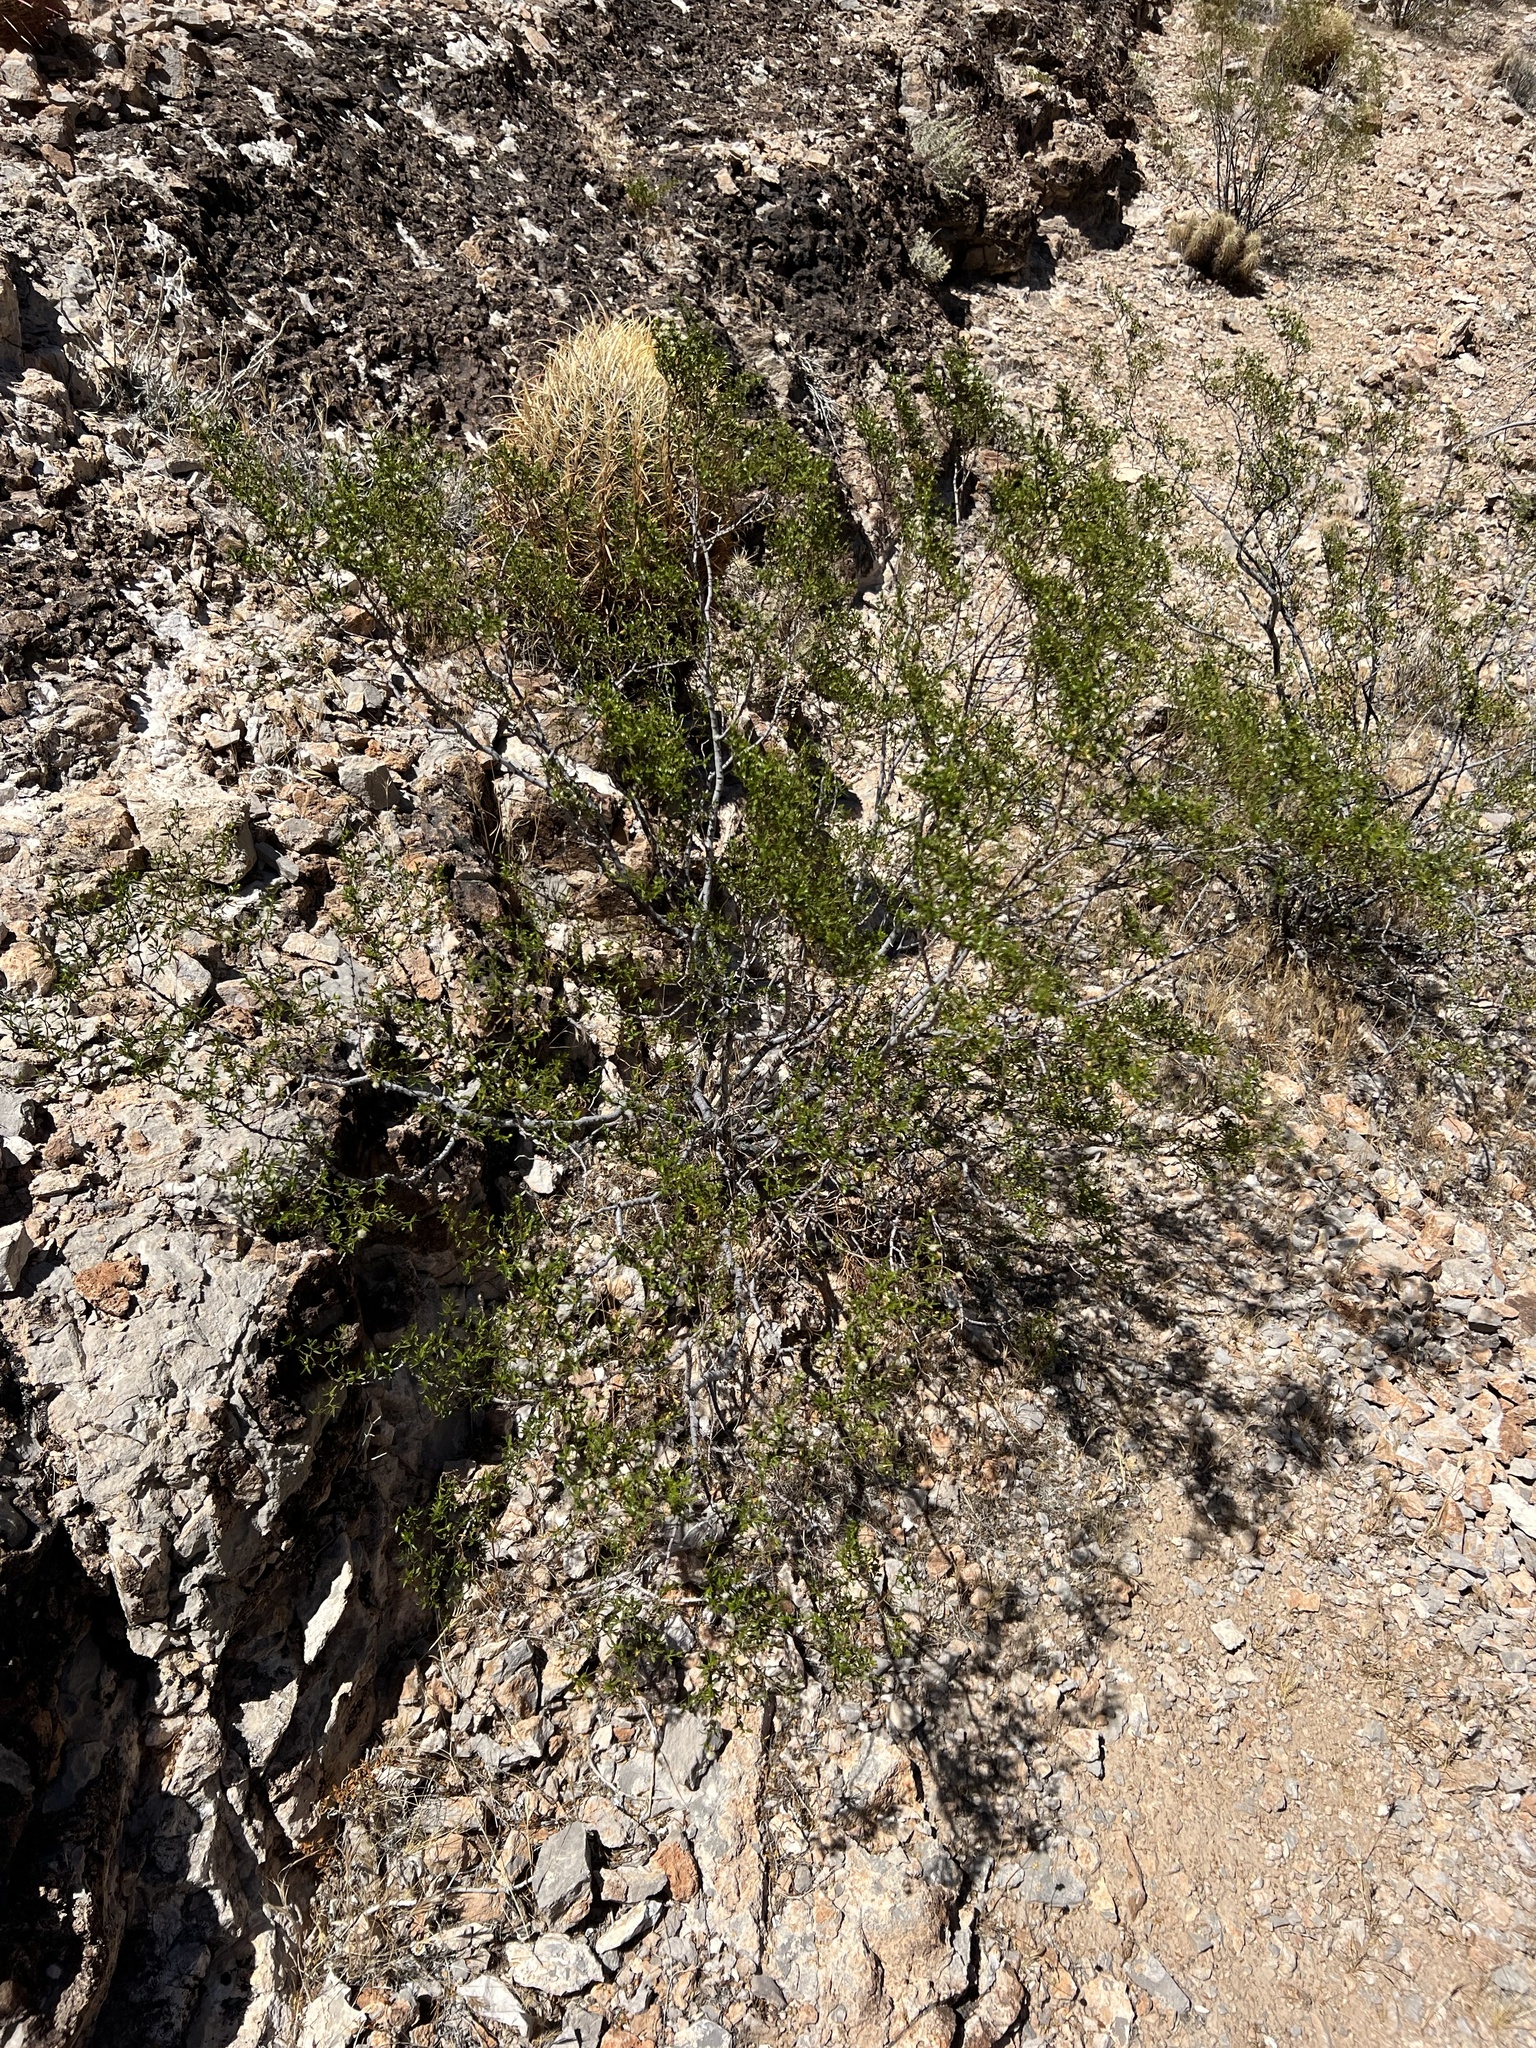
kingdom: Plantae
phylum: Tracheophyta
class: Magnoliopsida
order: Zygophyllales
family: Zygophyllaceae
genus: Larrea
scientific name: Larrea tridentata
